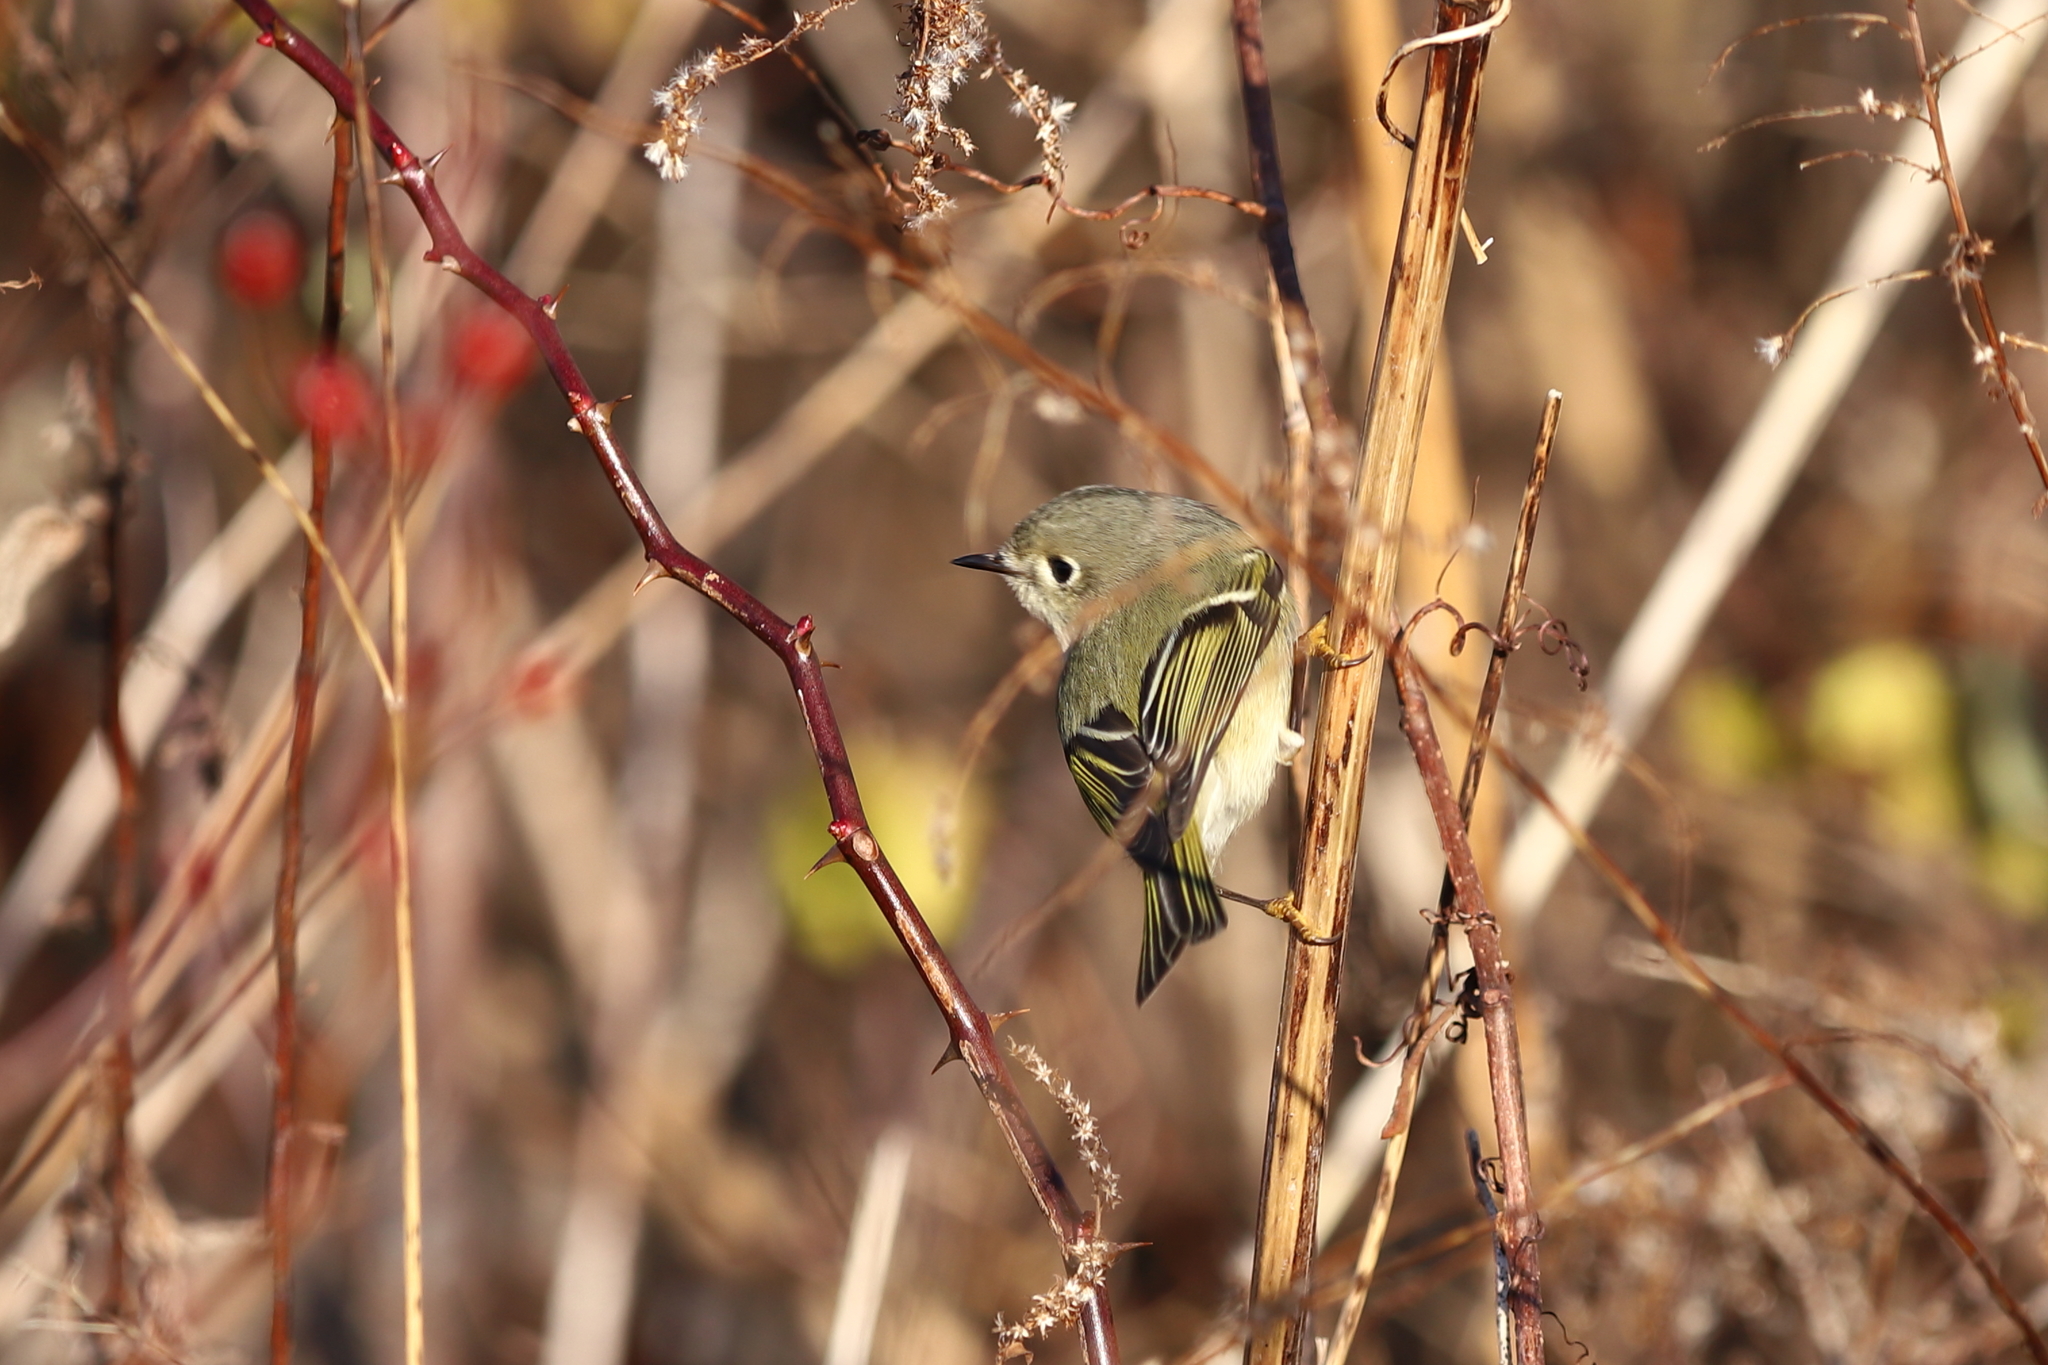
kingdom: Animalia
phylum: Chordata
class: Aves
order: Passeriformes
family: Regulidae
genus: Regulus
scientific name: Regulus calendula
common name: Ruby-crowned kinglet
